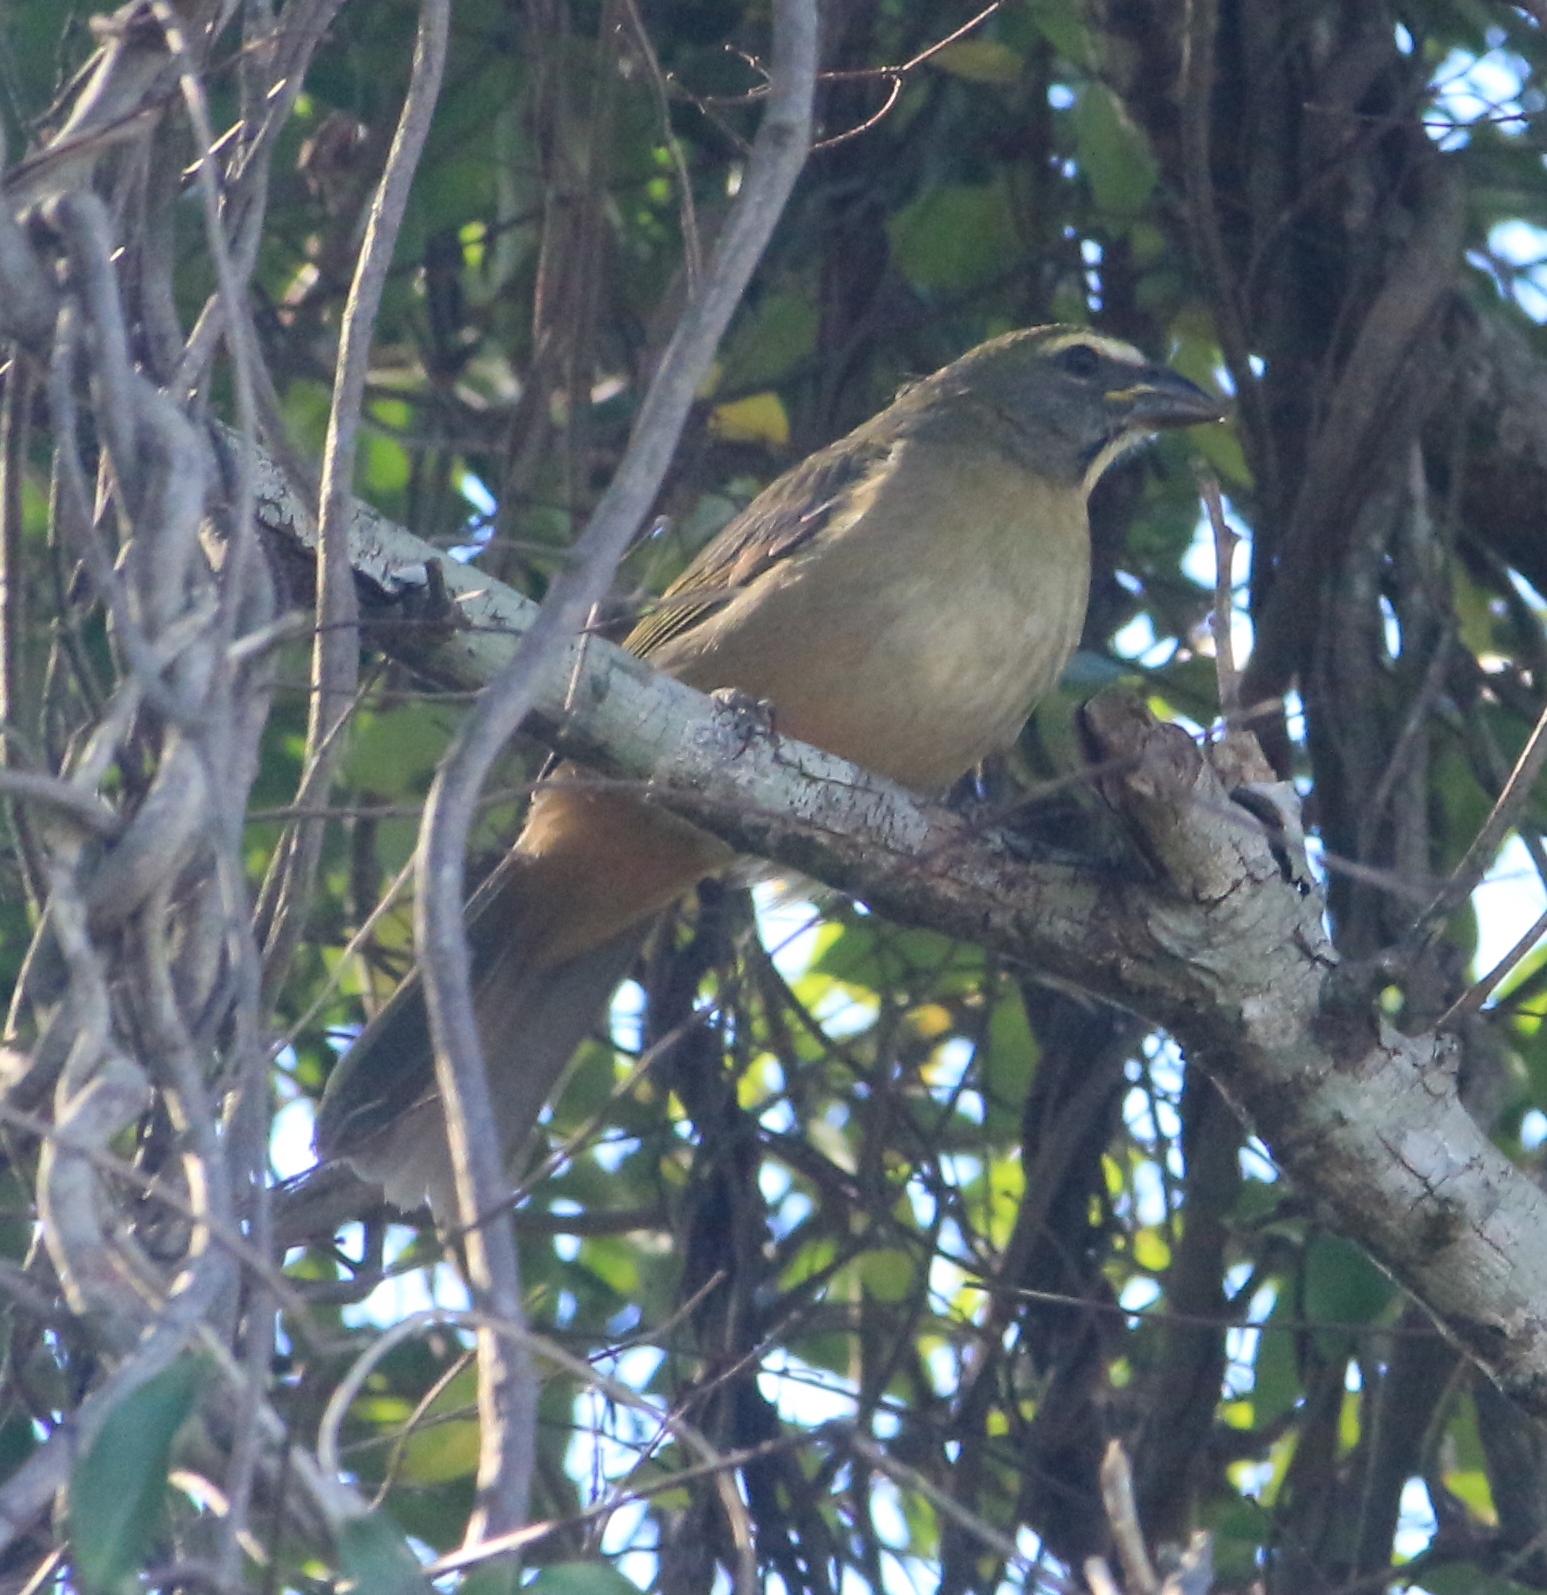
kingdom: Animalia
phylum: Chordata
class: Aves
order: Passeriformes
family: Thraupidae
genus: Saltator
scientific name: Saltator coerulescens
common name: Grayish saltator
